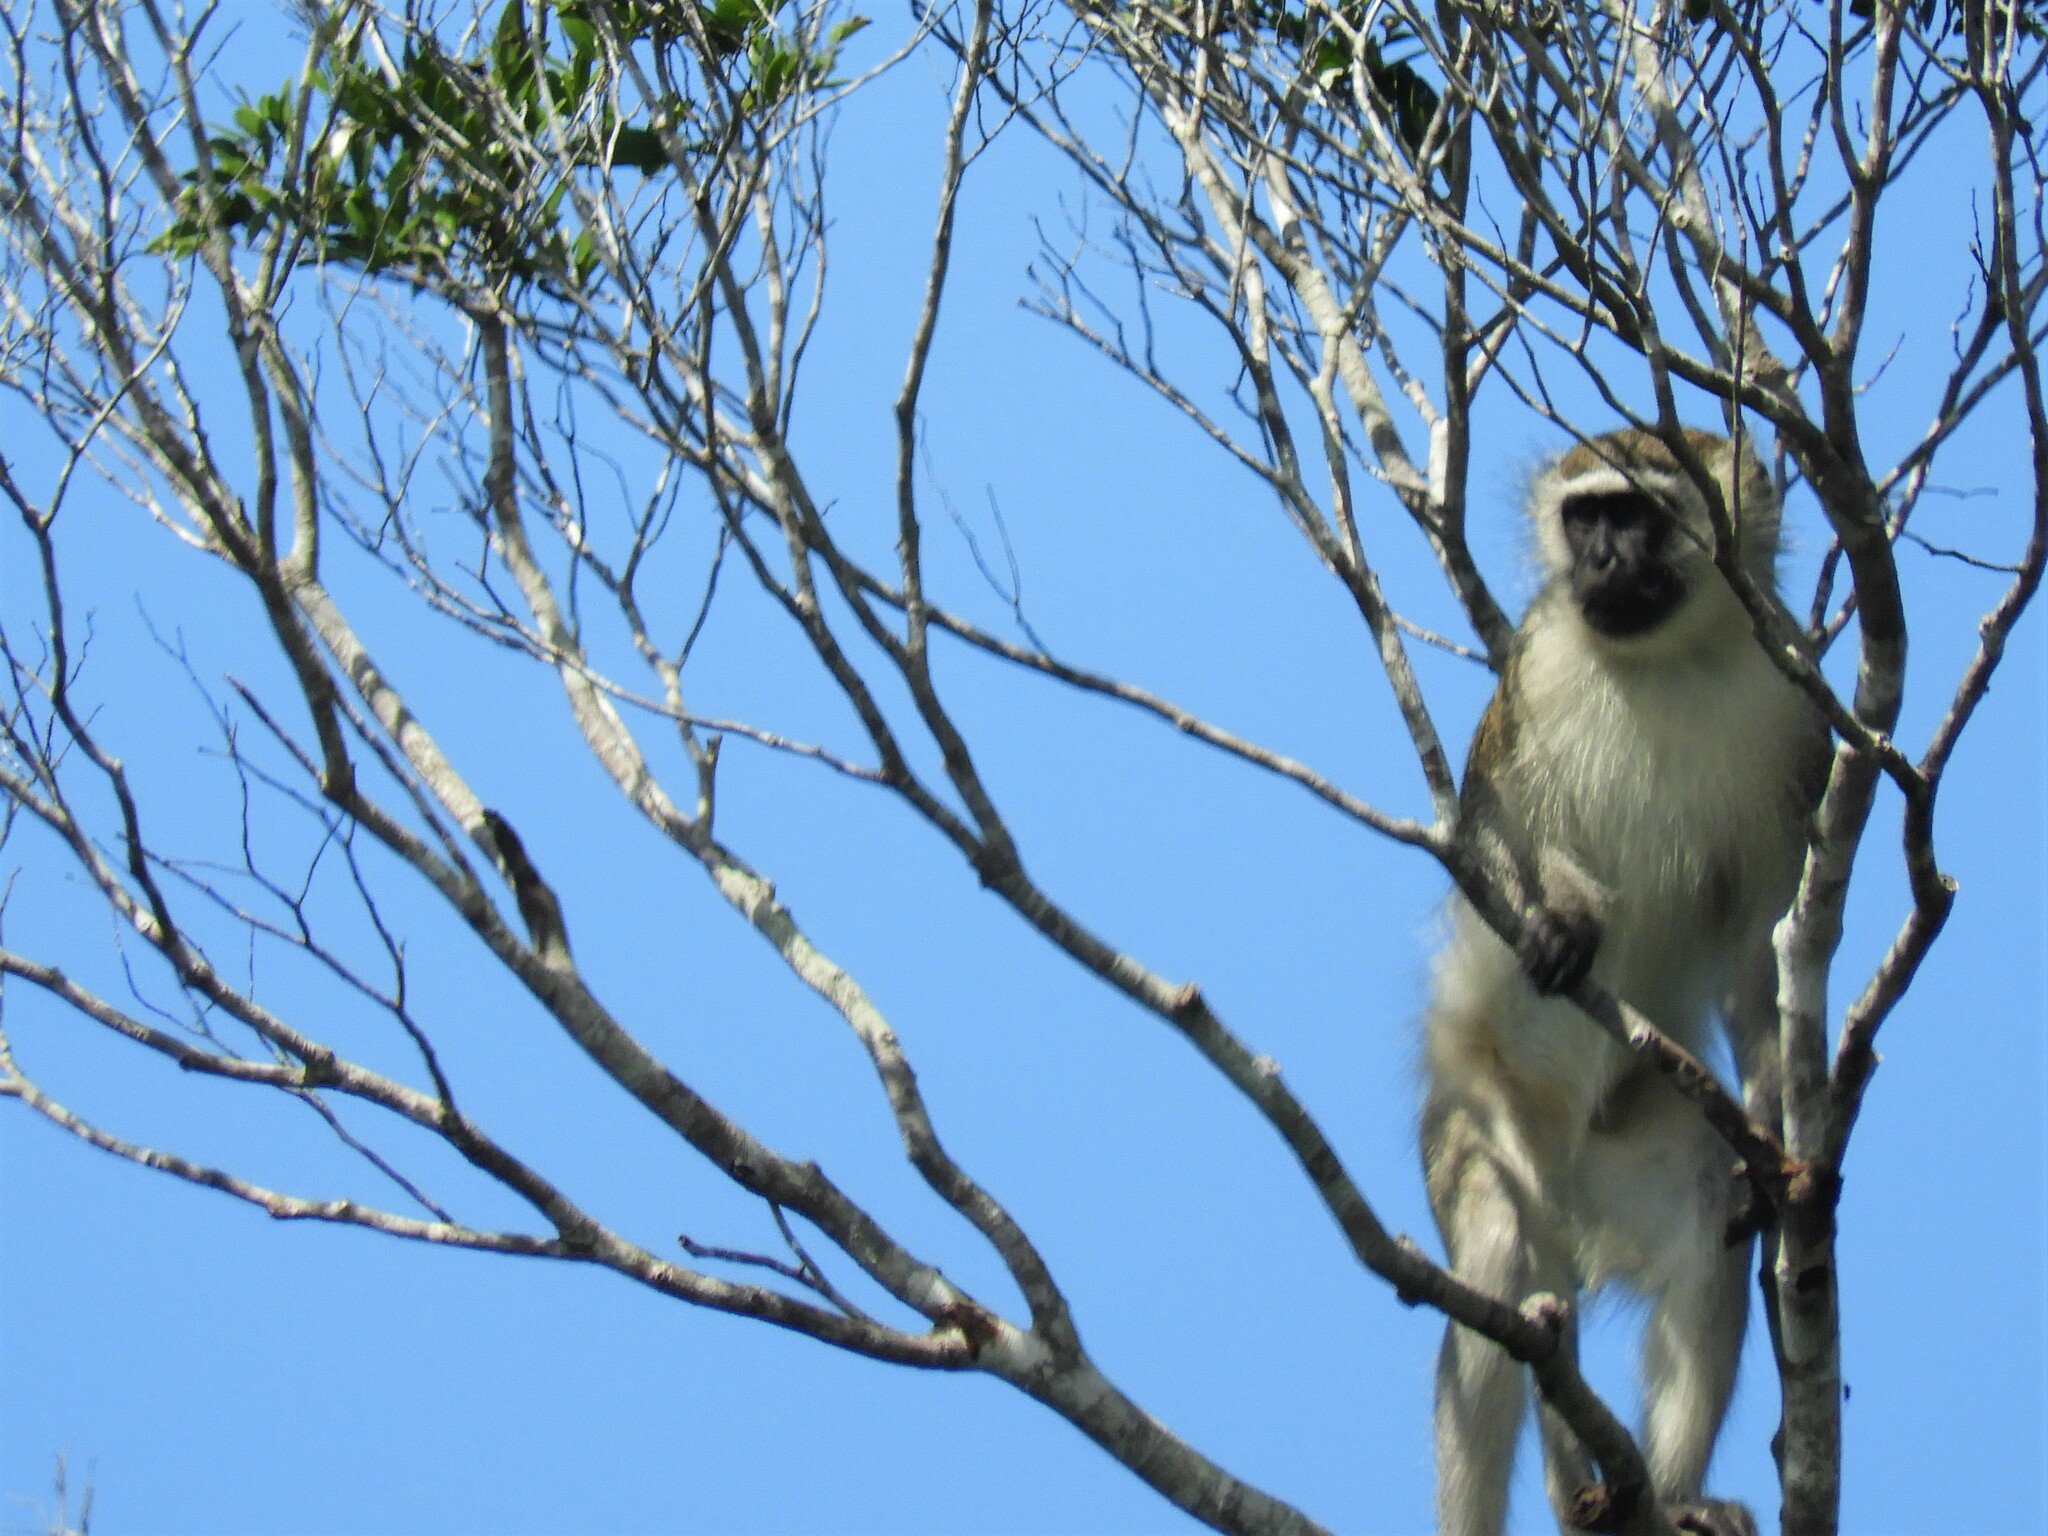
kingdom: Animalia
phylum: Chordata
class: Mammalia
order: Primates
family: Cercopithecidae
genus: Chlorocebus
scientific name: Chlorocebus pygerythrus
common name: Vervet monkey
